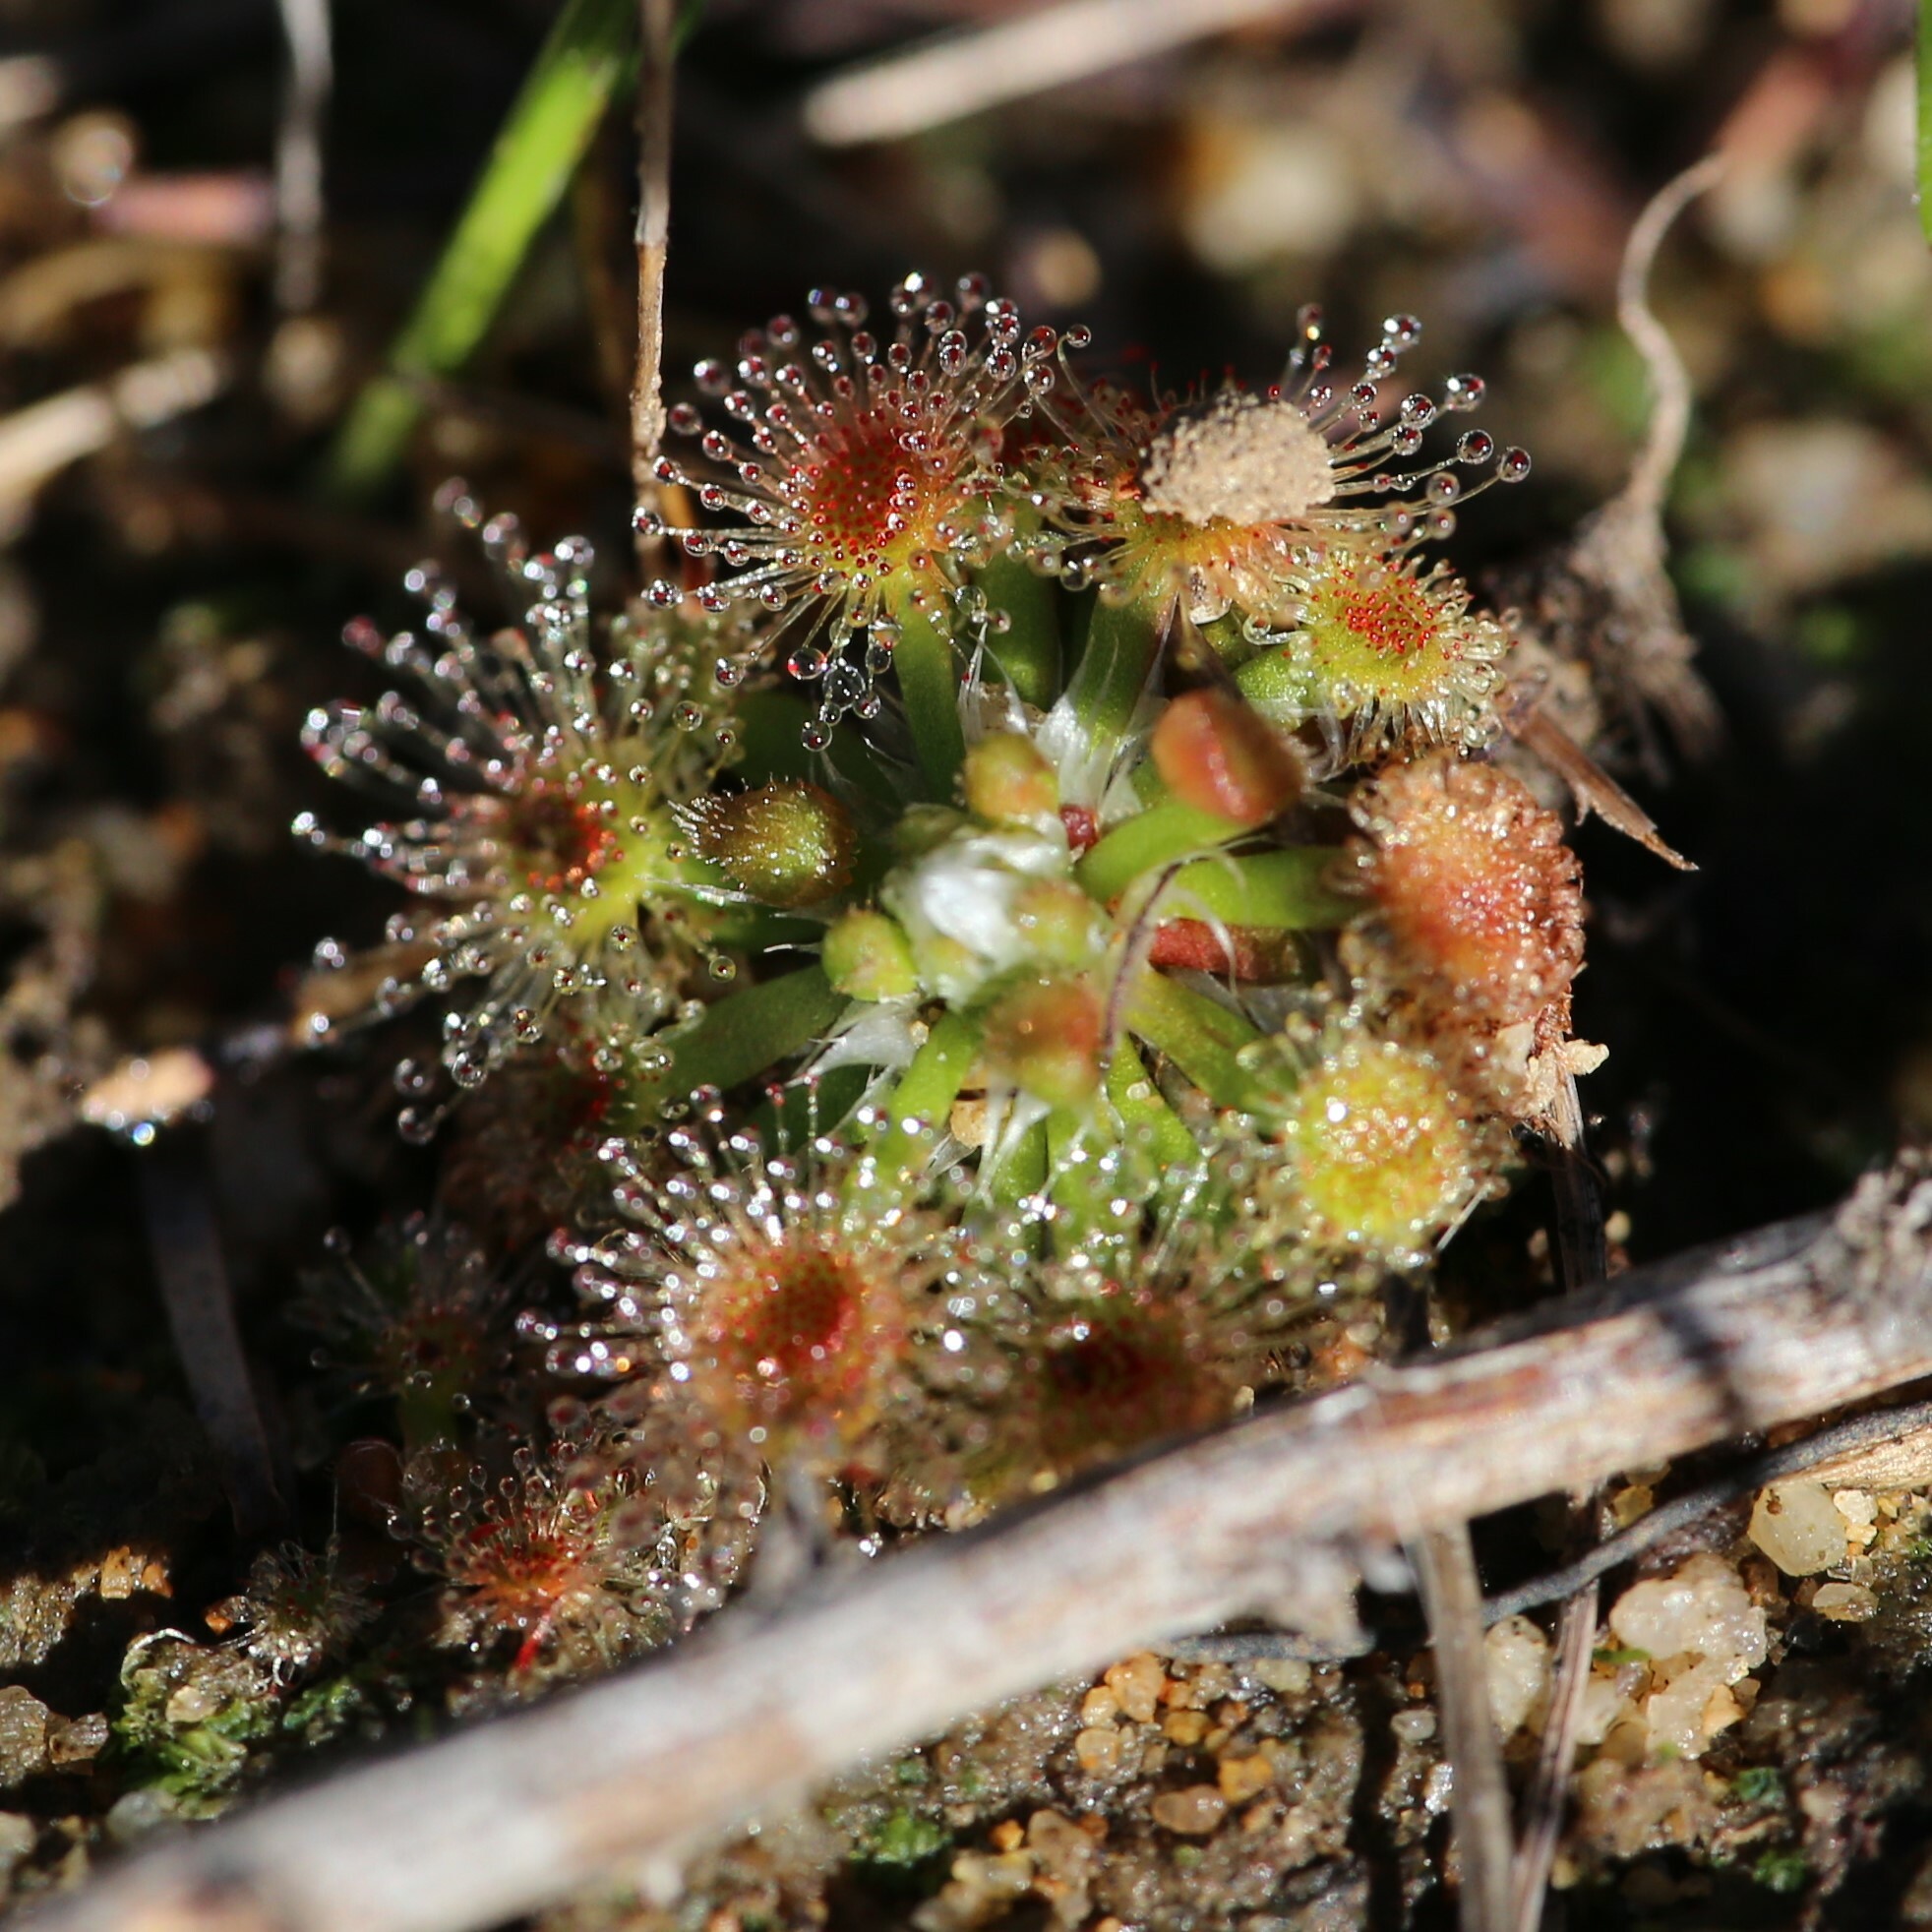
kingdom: Plantae
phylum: Tracheophyta
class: Magnoliopsida
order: Caryophyllales
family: Droseraceae
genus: Drosera
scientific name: Drosera miniata
